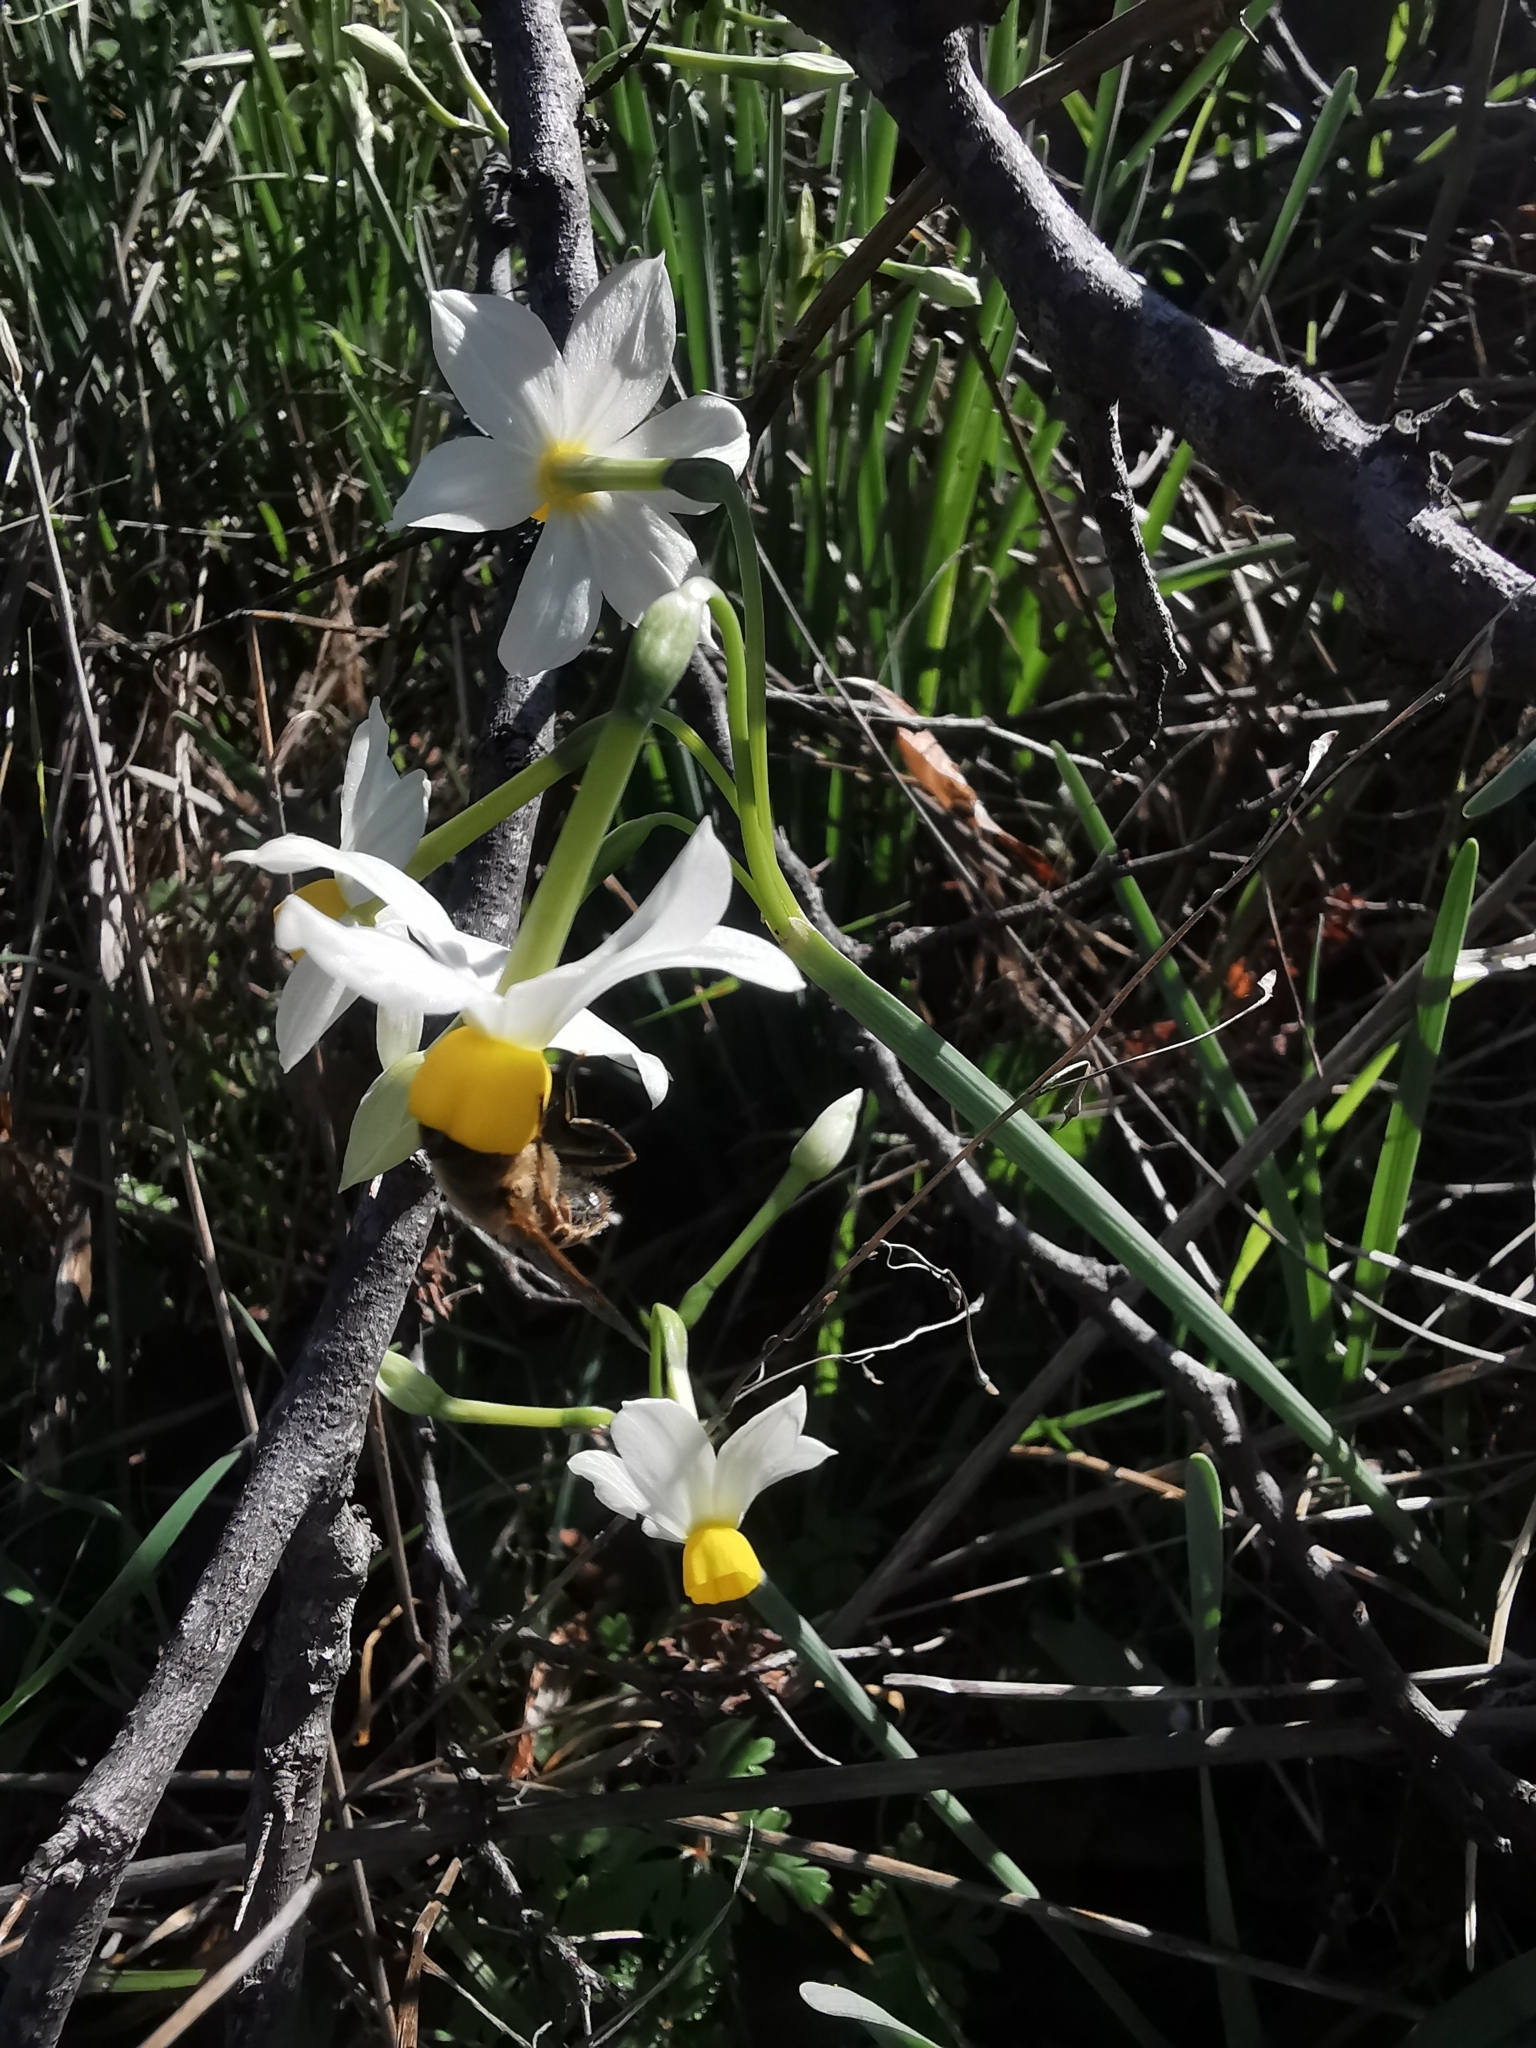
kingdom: Plantae
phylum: Tracheophyta
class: Liliopsida
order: Asparagales
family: Amaryllidaceae
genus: Narcissus
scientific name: Narcissus tazetta
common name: Bunch-flowered daffodil
